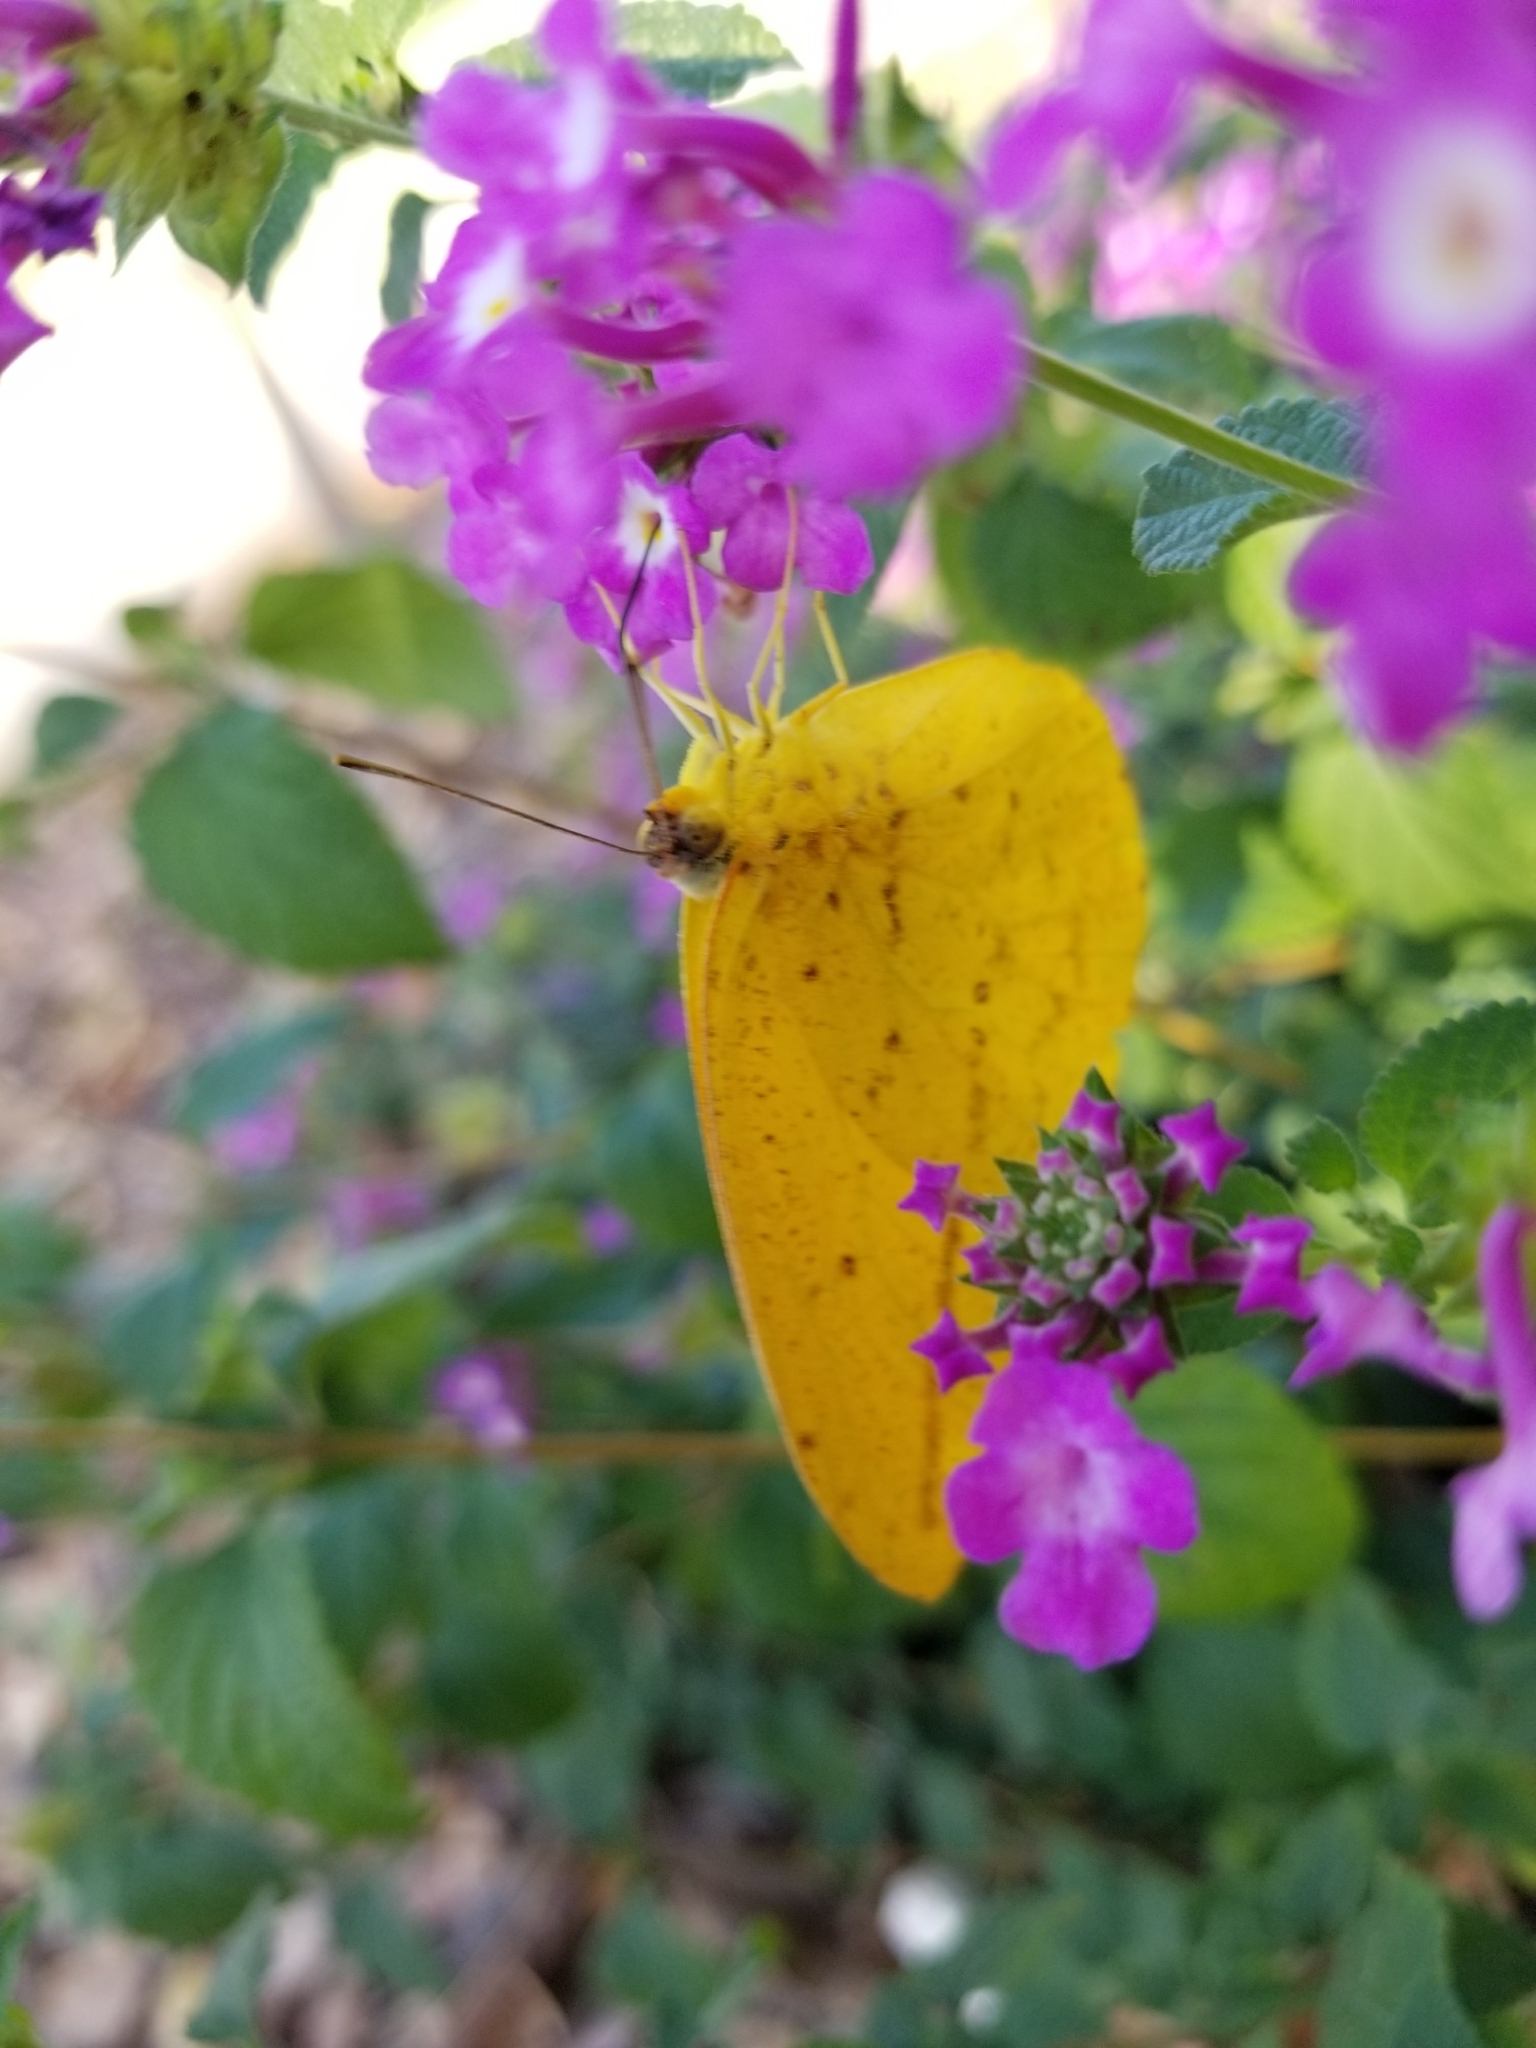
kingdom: Animalia
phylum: Arthropoda
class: Insecta
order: Lepidoptera
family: Pieridae
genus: Phoebis
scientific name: Phoebis agarithe
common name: Large orange sulphur
